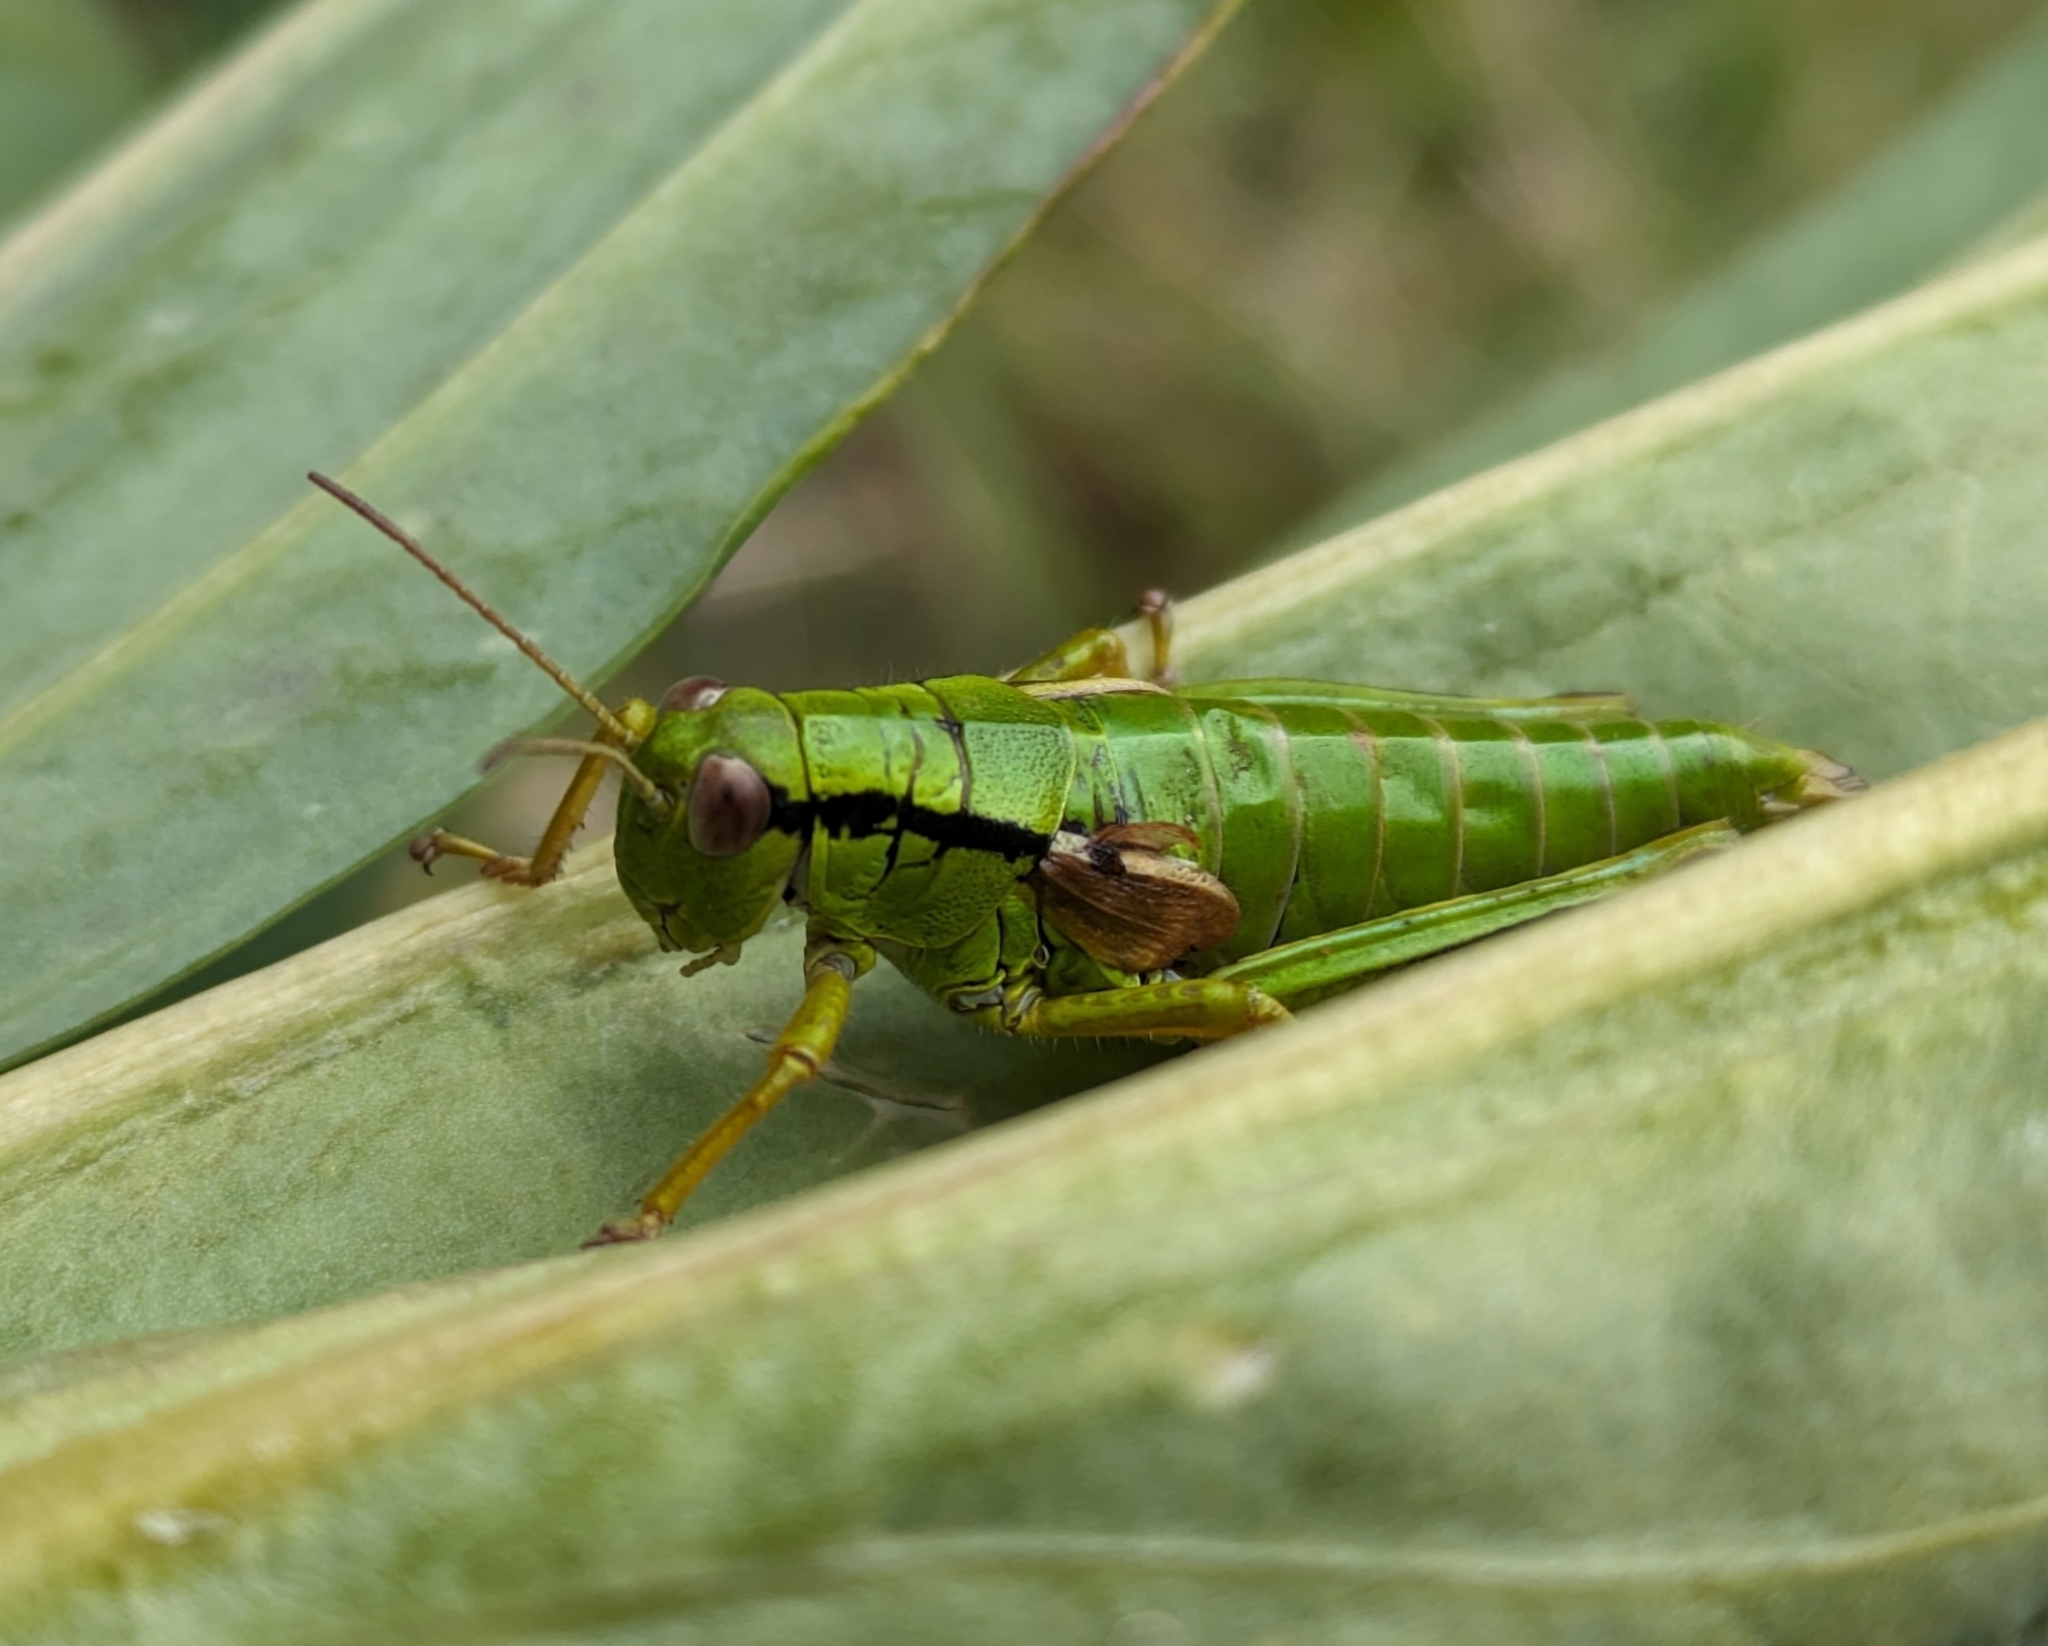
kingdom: Animalia
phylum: Arthropoda
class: Insecta
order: Orthoptera
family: Acrididae
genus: Miramella
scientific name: Miramella alpina
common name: Green mountain grasshopper
